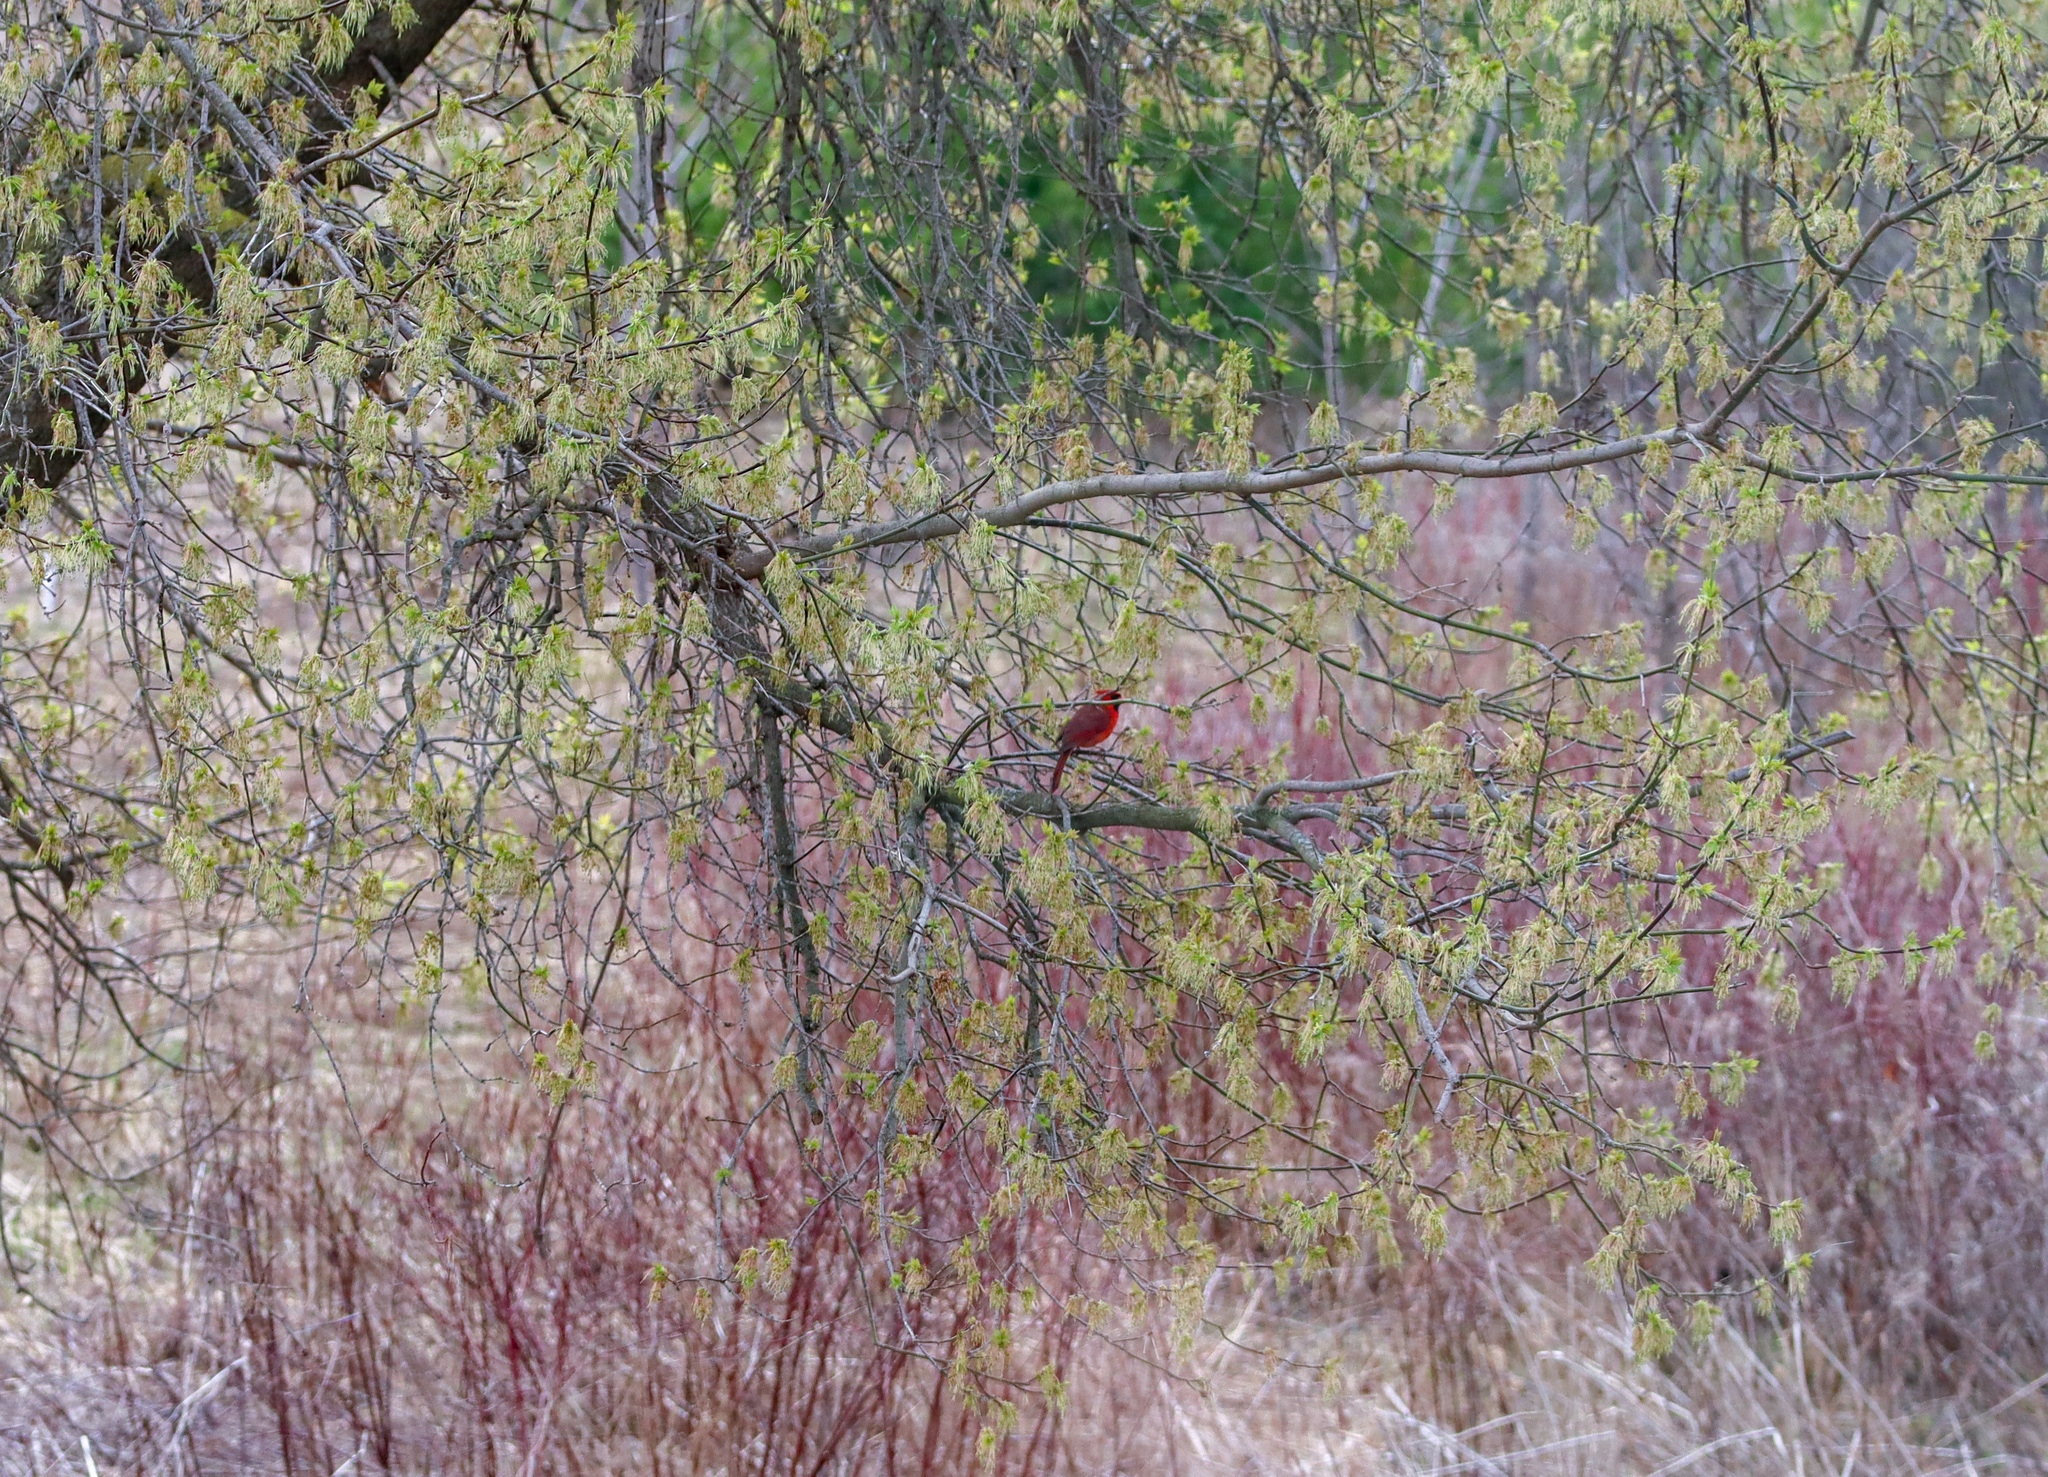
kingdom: Animalia
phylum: Chordata
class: Aves
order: Passeriformes
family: Cardinalidae
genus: Cardinalis
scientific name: Cardinalis cardinalis
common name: Northern cardinal
